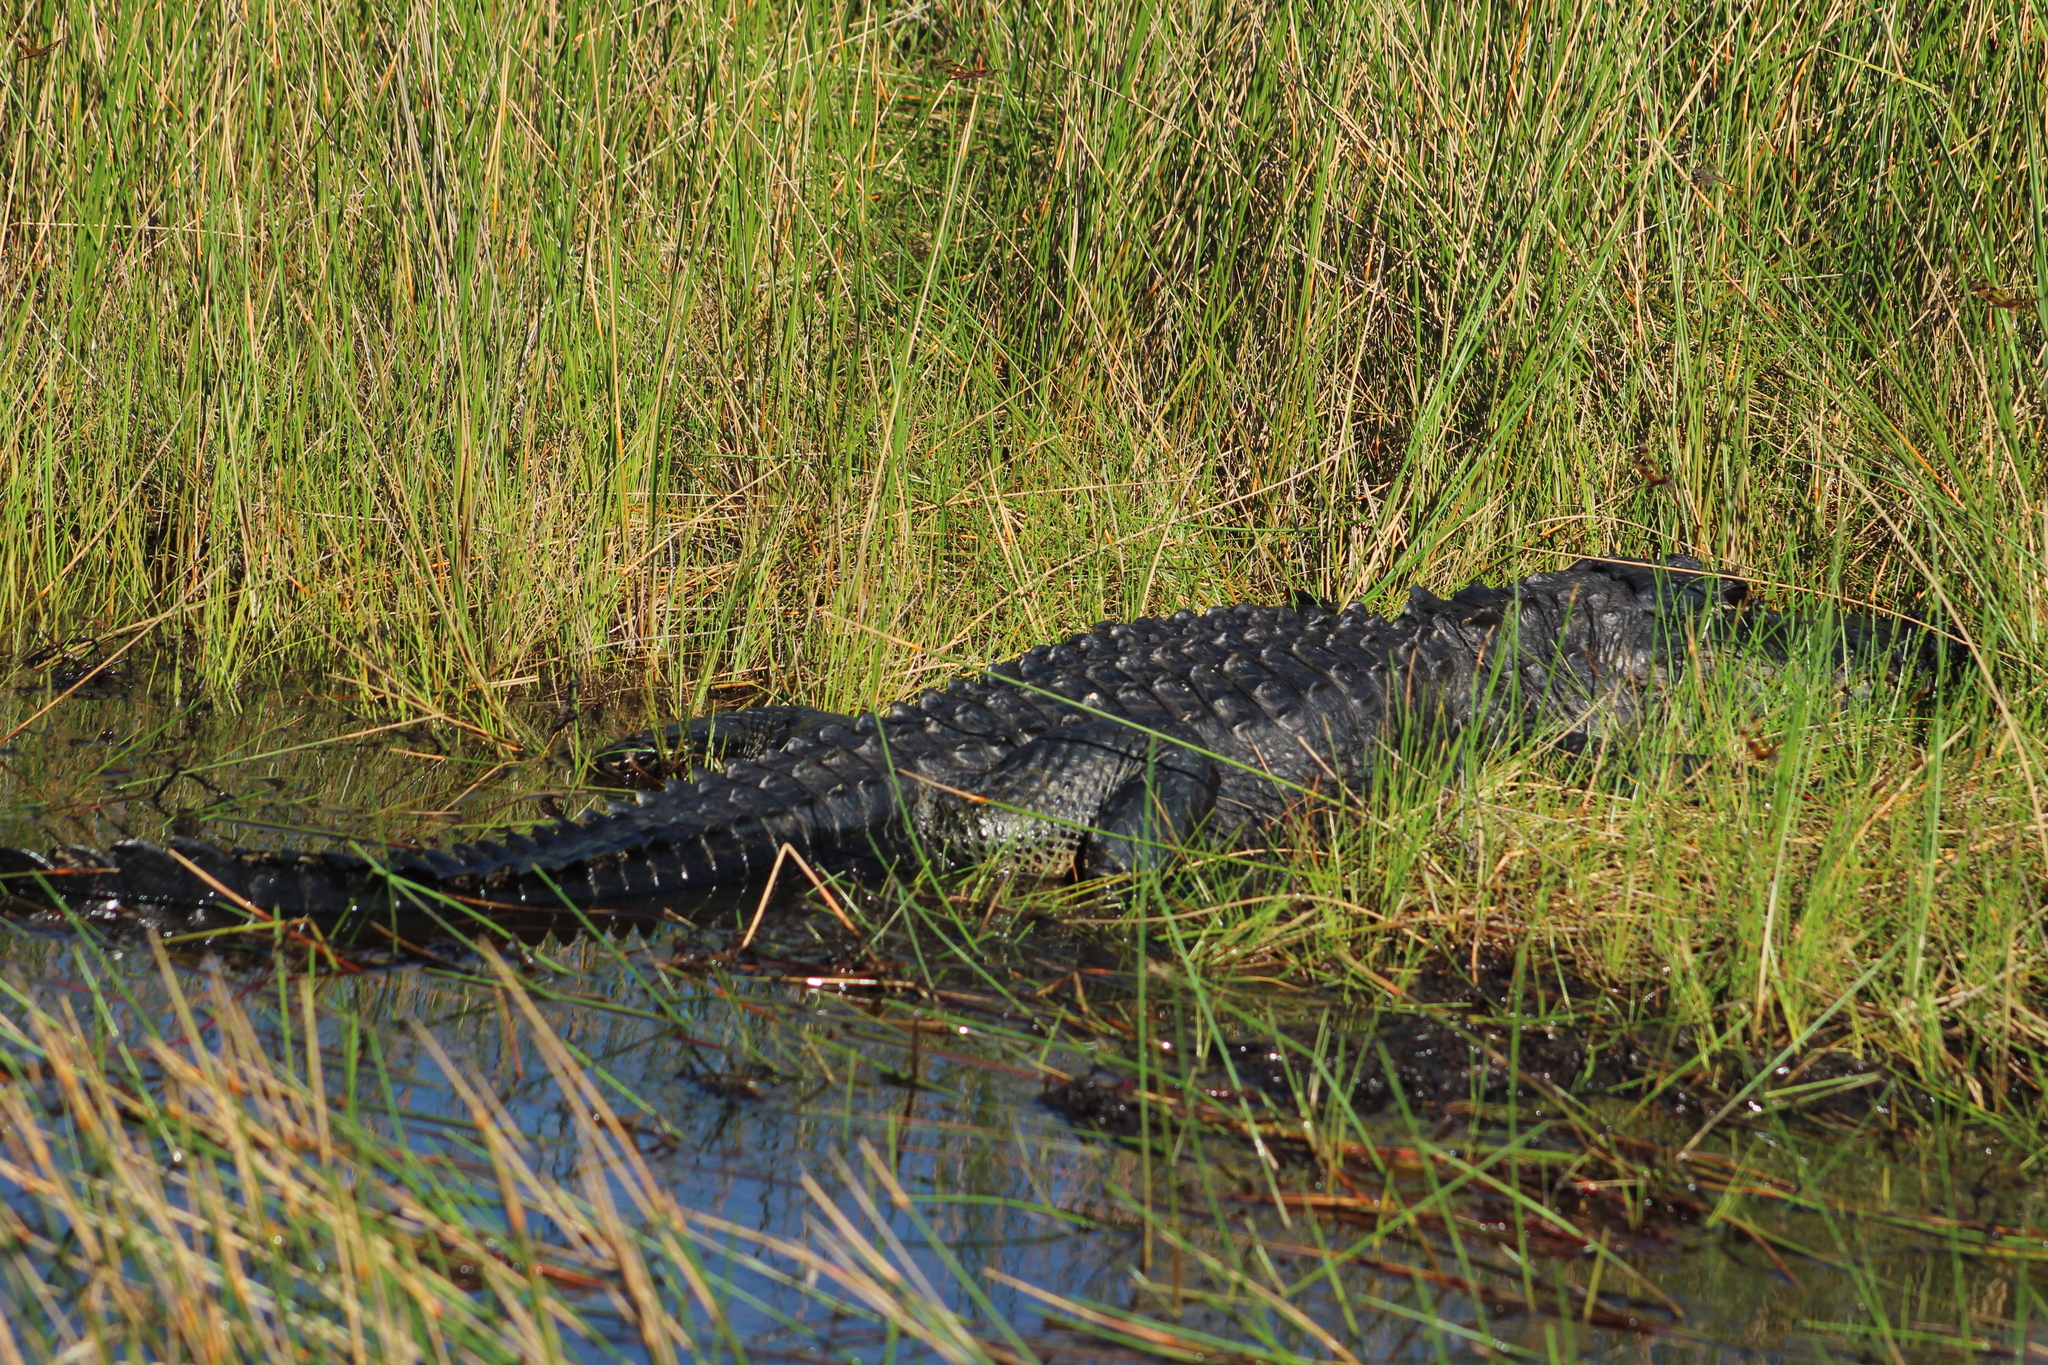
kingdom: Animalia
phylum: Chordata
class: Crocodylia
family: Alligatoridae
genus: Alligator
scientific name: Alligator mississippiensis
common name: American alligator
